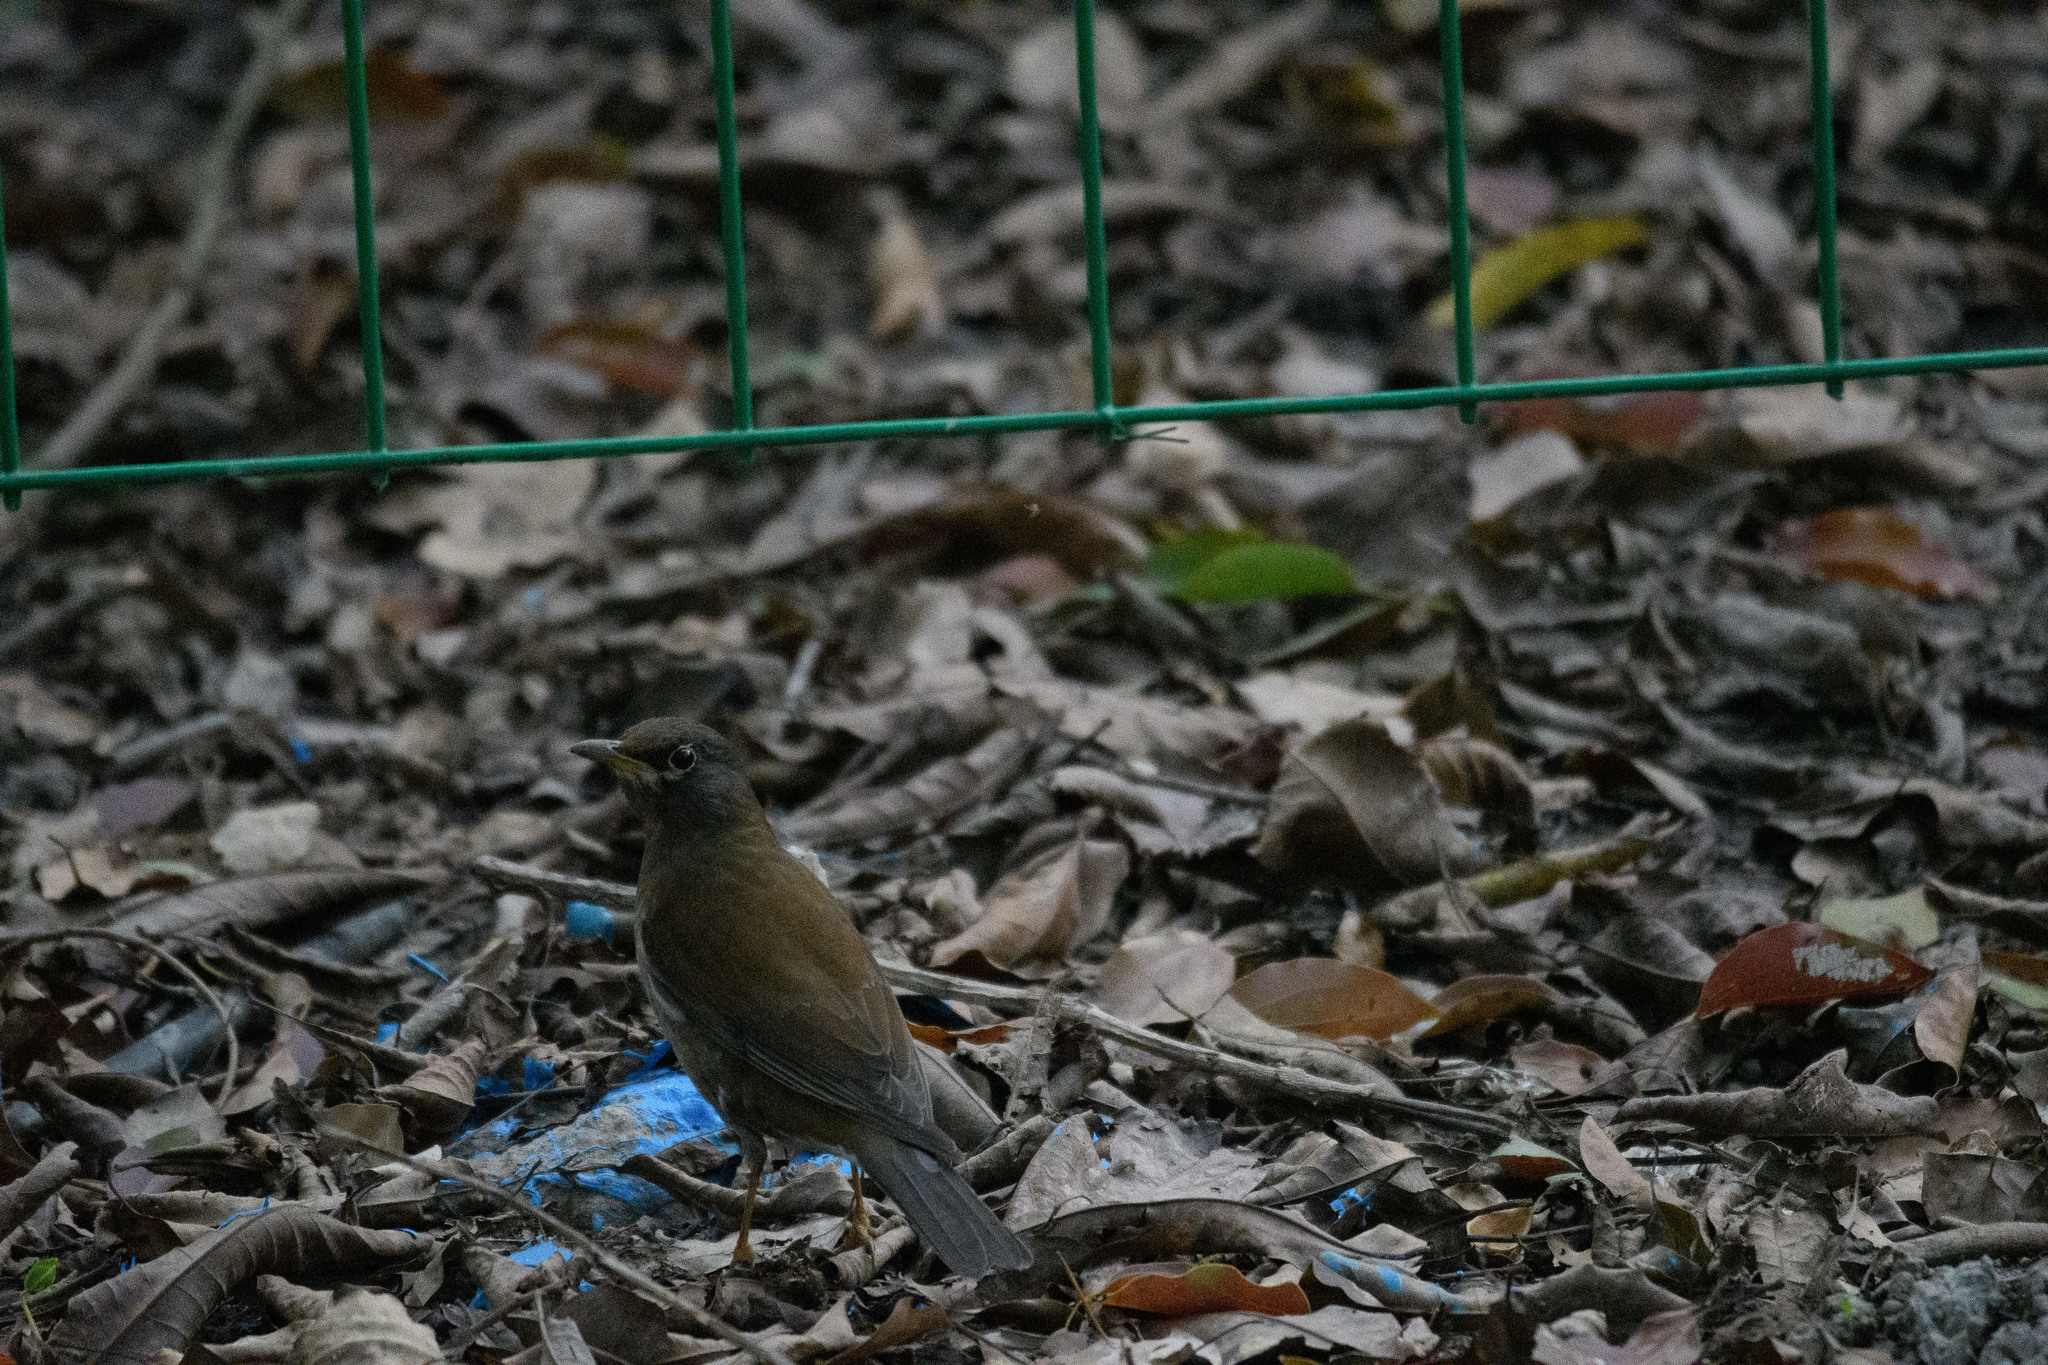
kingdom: Animalia
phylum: Chordata
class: Aves
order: Passeriformes
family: Turdidae
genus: Turdus
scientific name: Turdus pallidus
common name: Pale thrush
